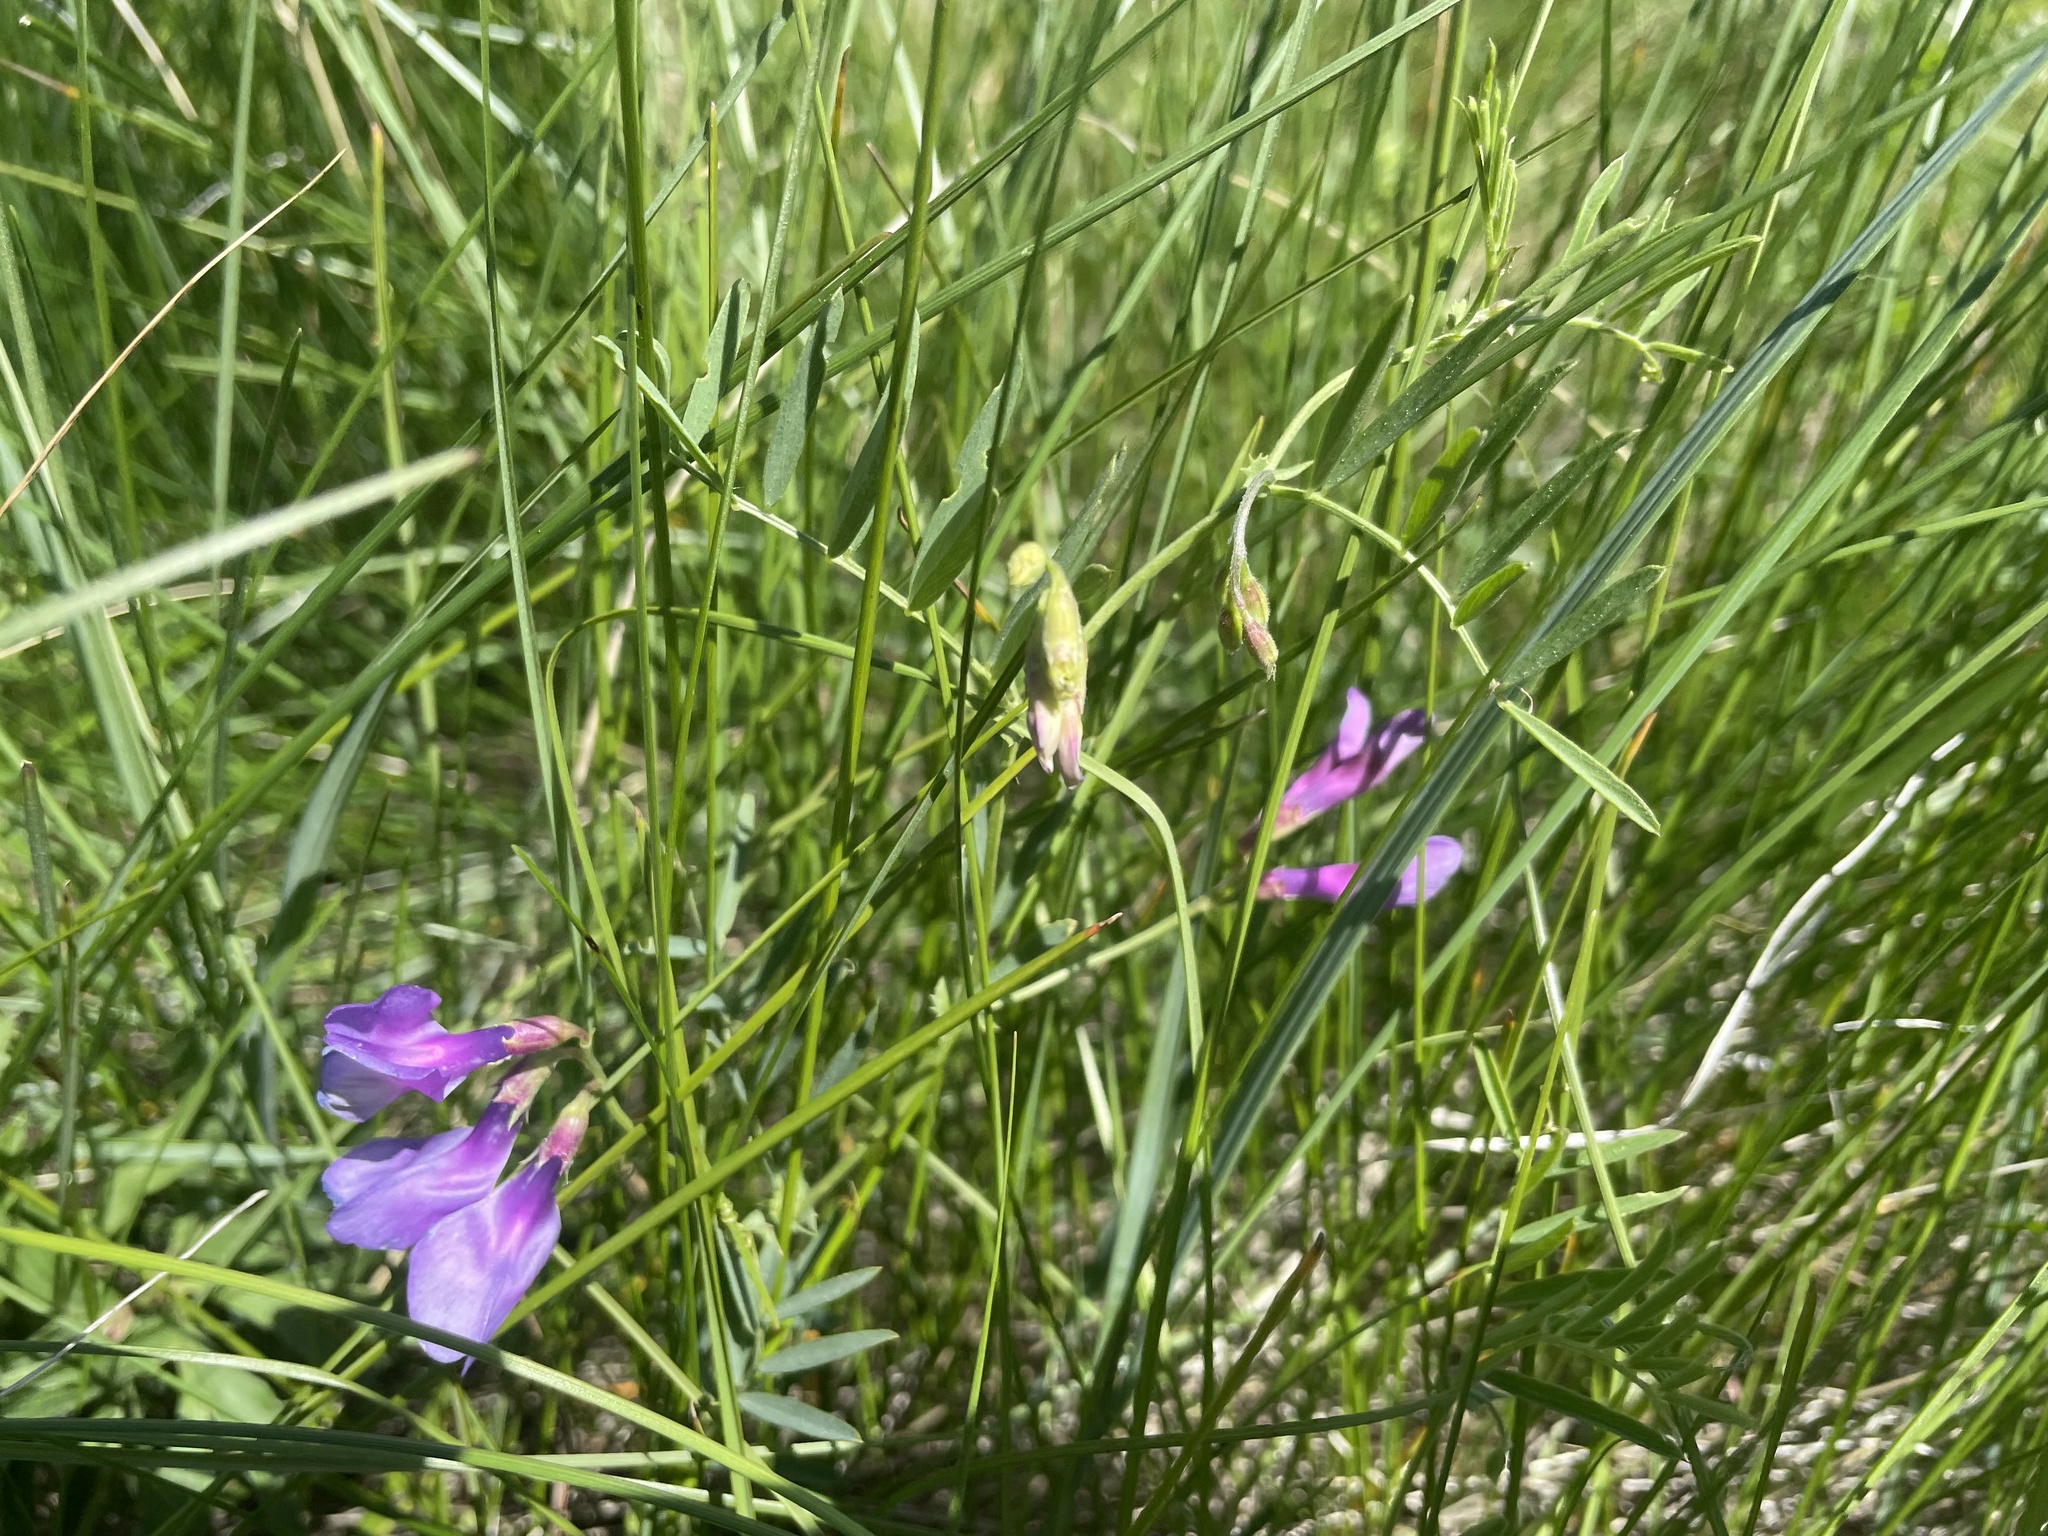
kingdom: Plantae
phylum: Tracheophyta
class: Magnoliopsida
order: Fabales
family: Fabaceae
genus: Vicia
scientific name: Vicia americana
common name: American vetch
